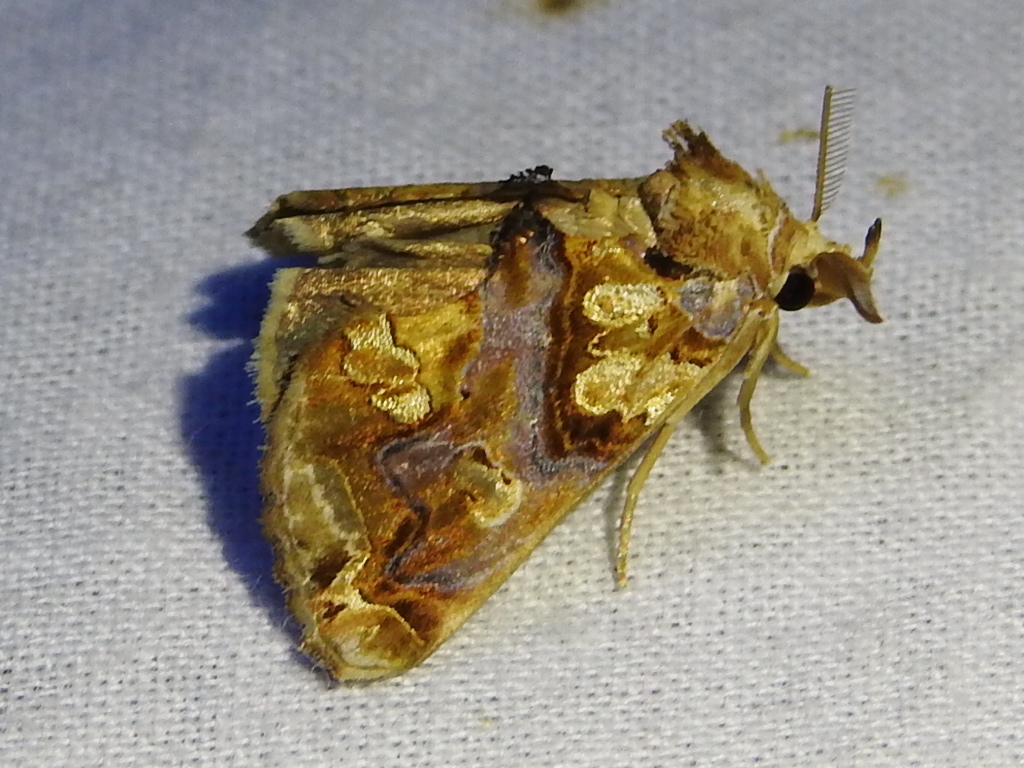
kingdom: Animalia
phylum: Arthropoda
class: Insecta
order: Lepidoptera
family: Erebidae
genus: Plusiodonta
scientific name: Plusiodonta compressipalpis
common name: Moonseed moth
